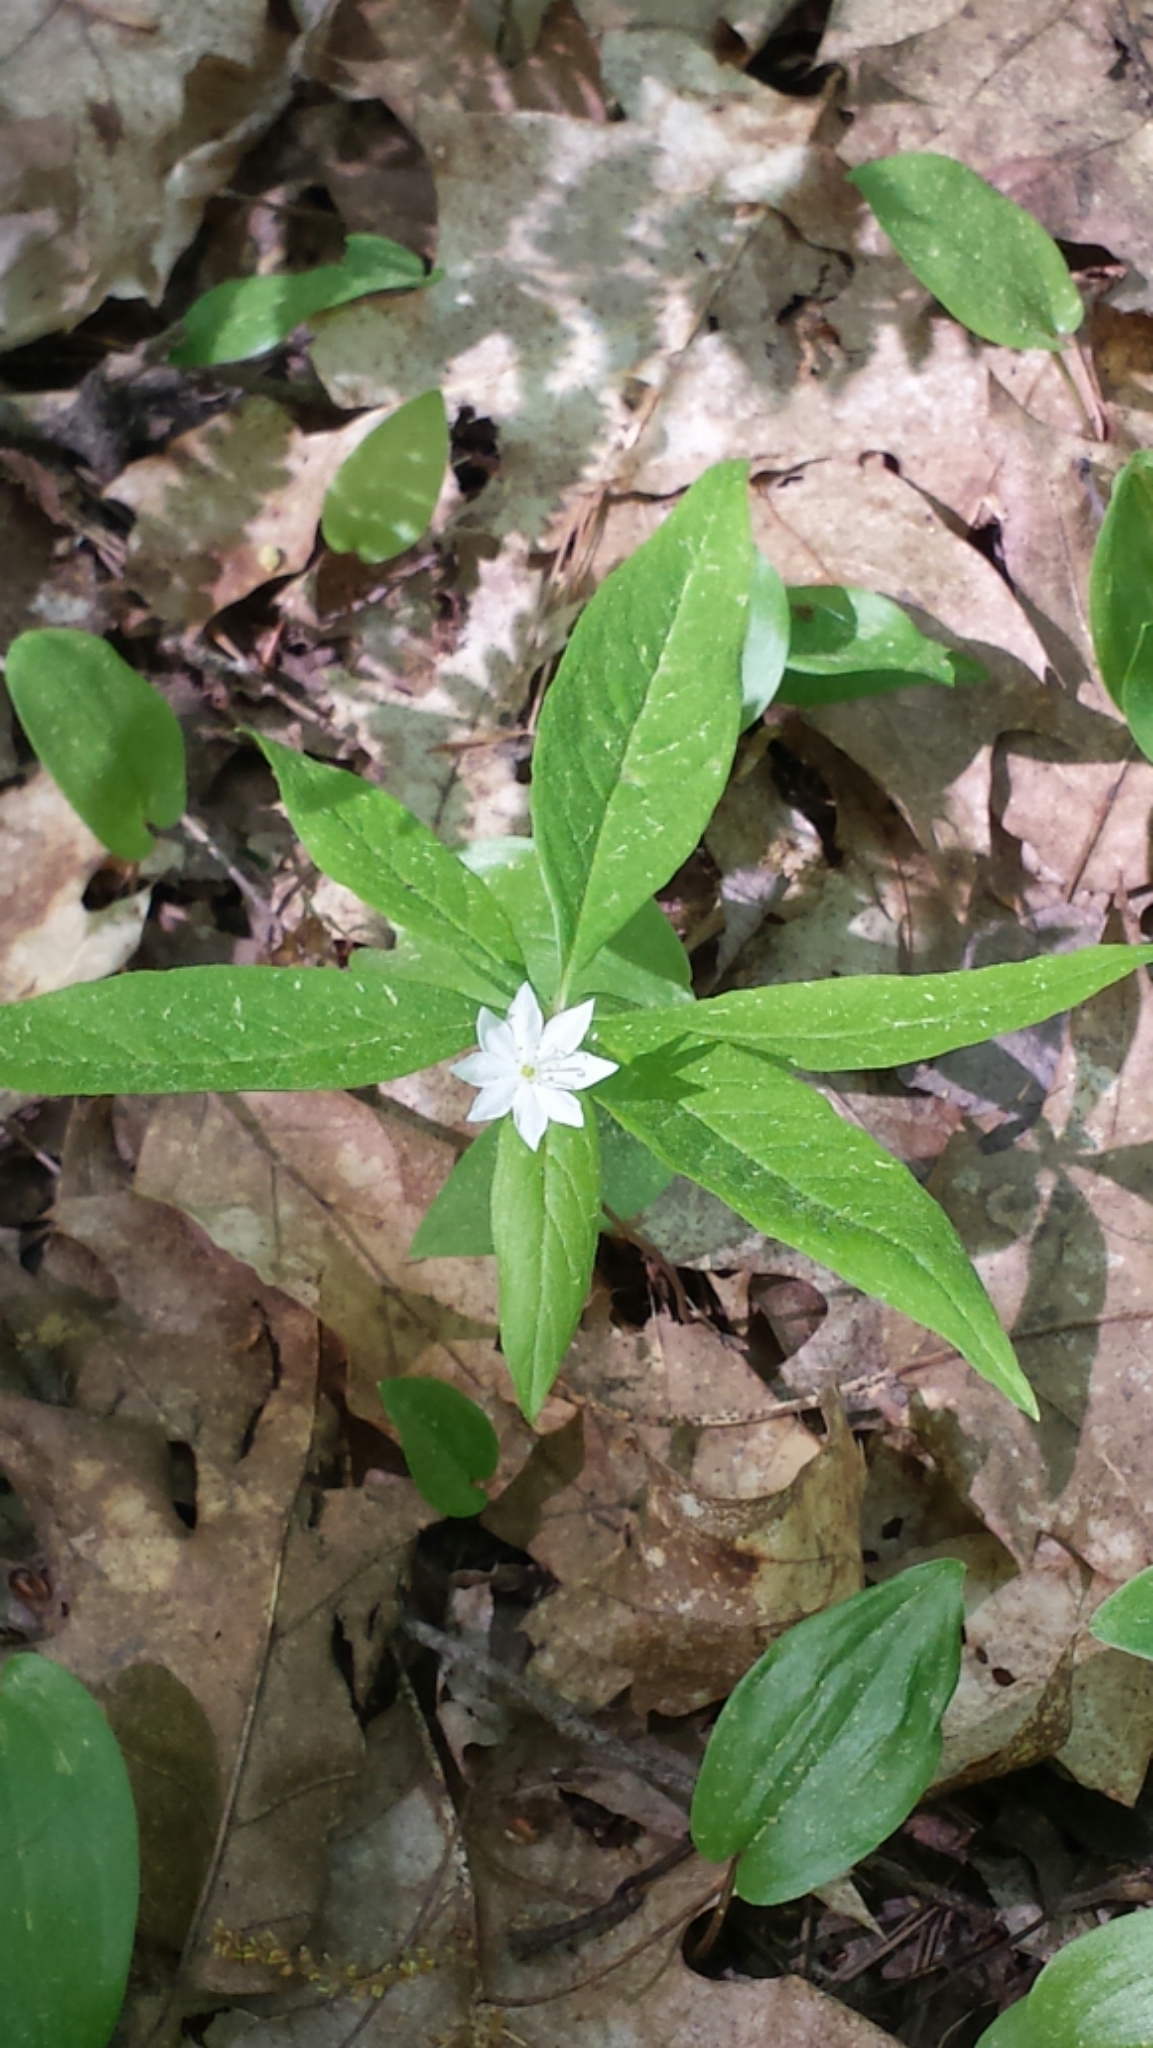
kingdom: Plantae
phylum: Tracheophyta
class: Magnoliopsida
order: Ericales
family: Primulaceae
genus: Lysimachia
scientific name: Lysimachia borealis
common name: American starflower
